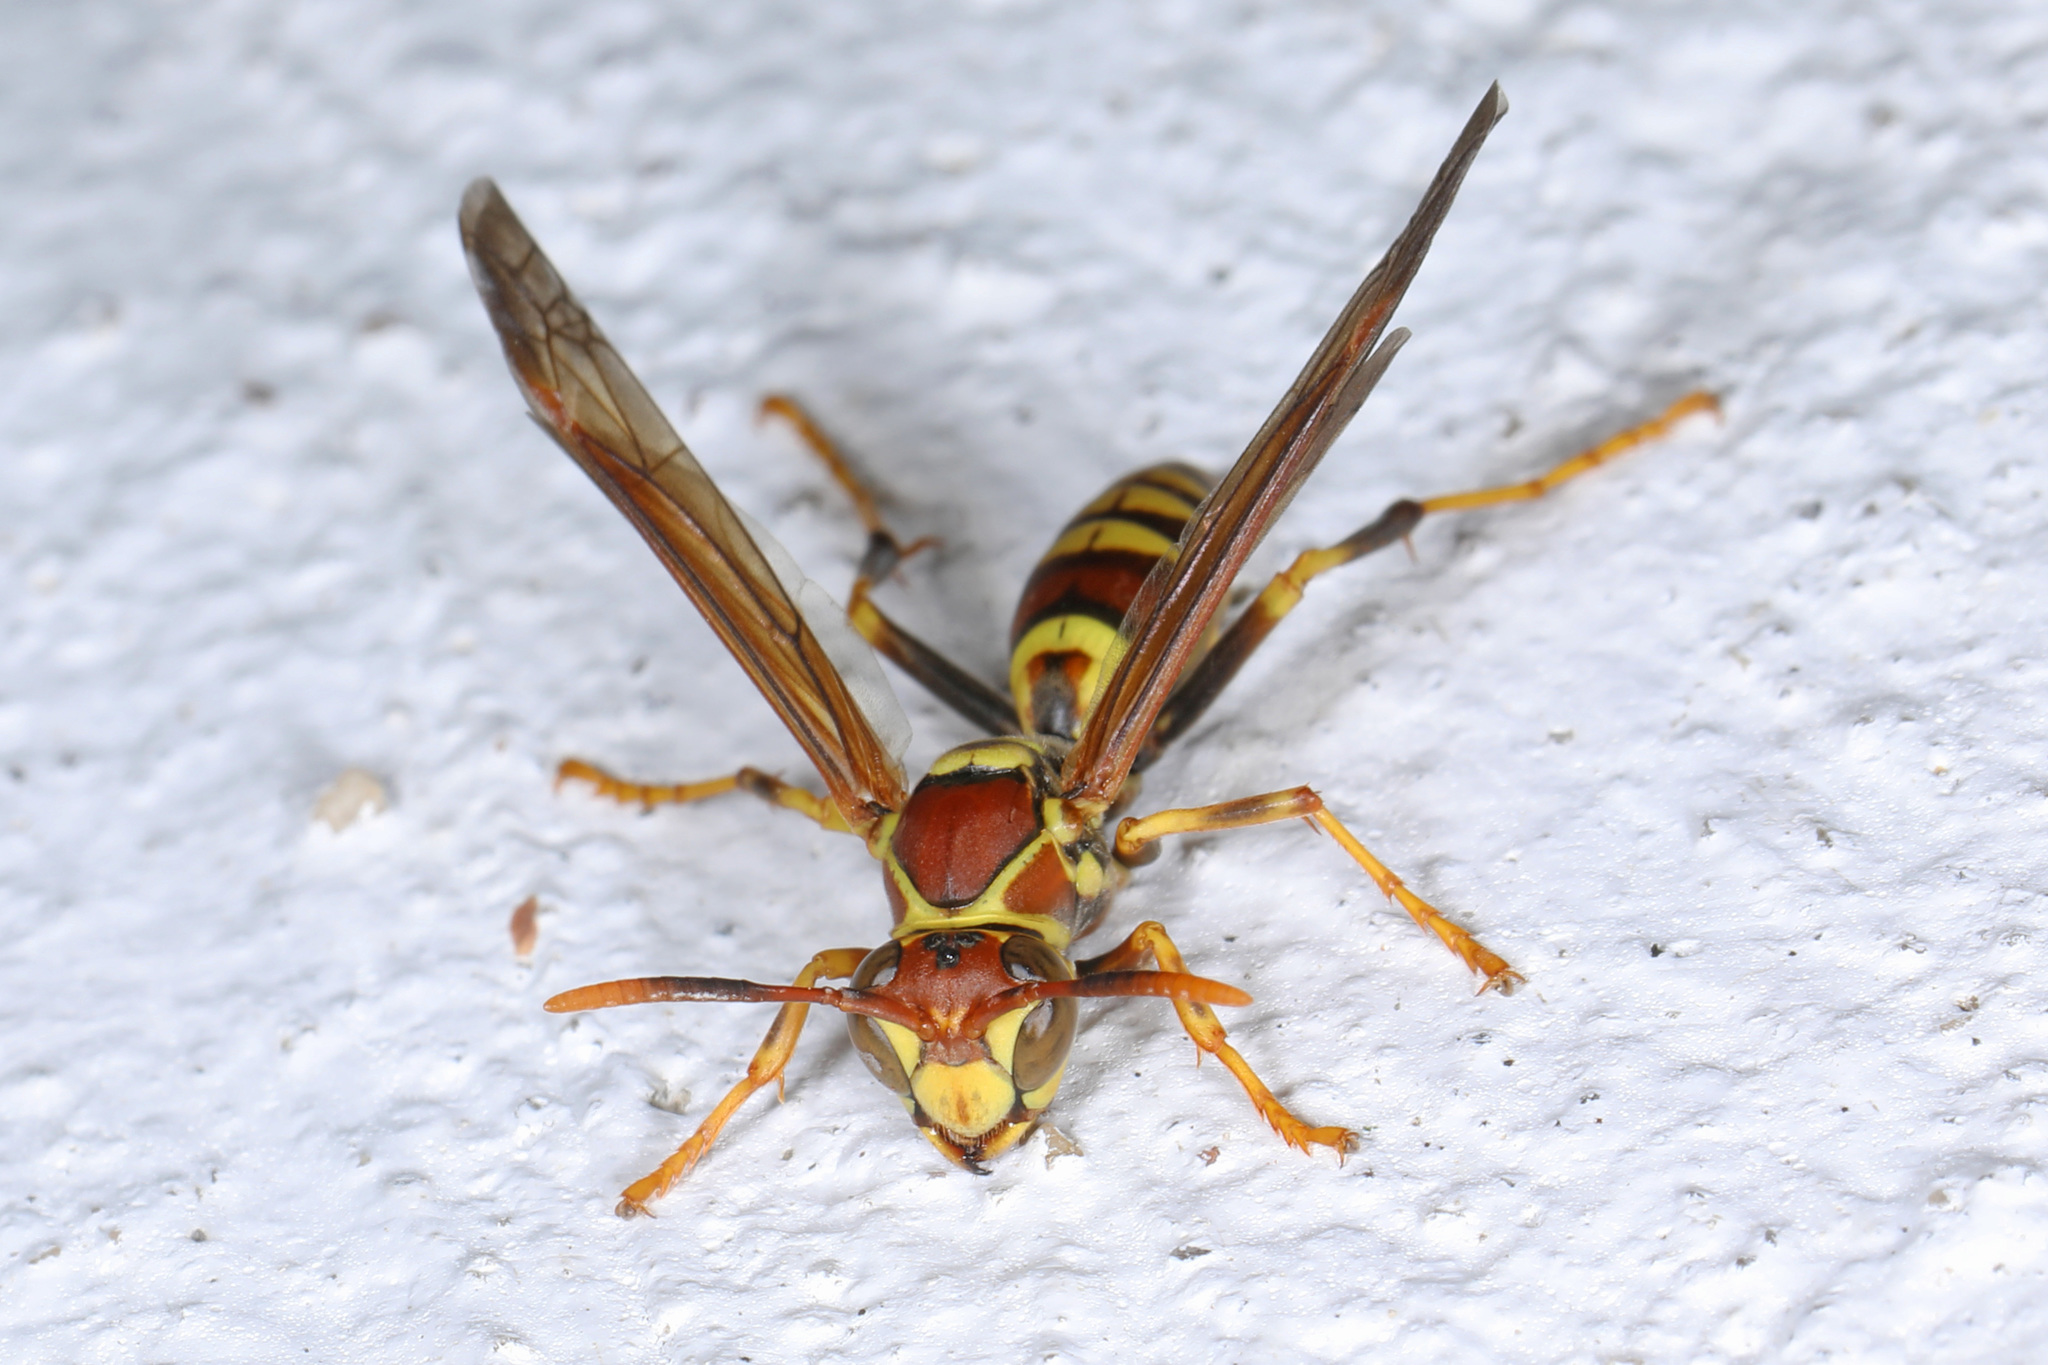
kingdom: Animalia
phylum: Arthropoda
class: Insecta
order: Hymenoptera
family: Eumenidae
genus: Polistes
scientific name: Polistes exclamans
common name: Paper wasp
